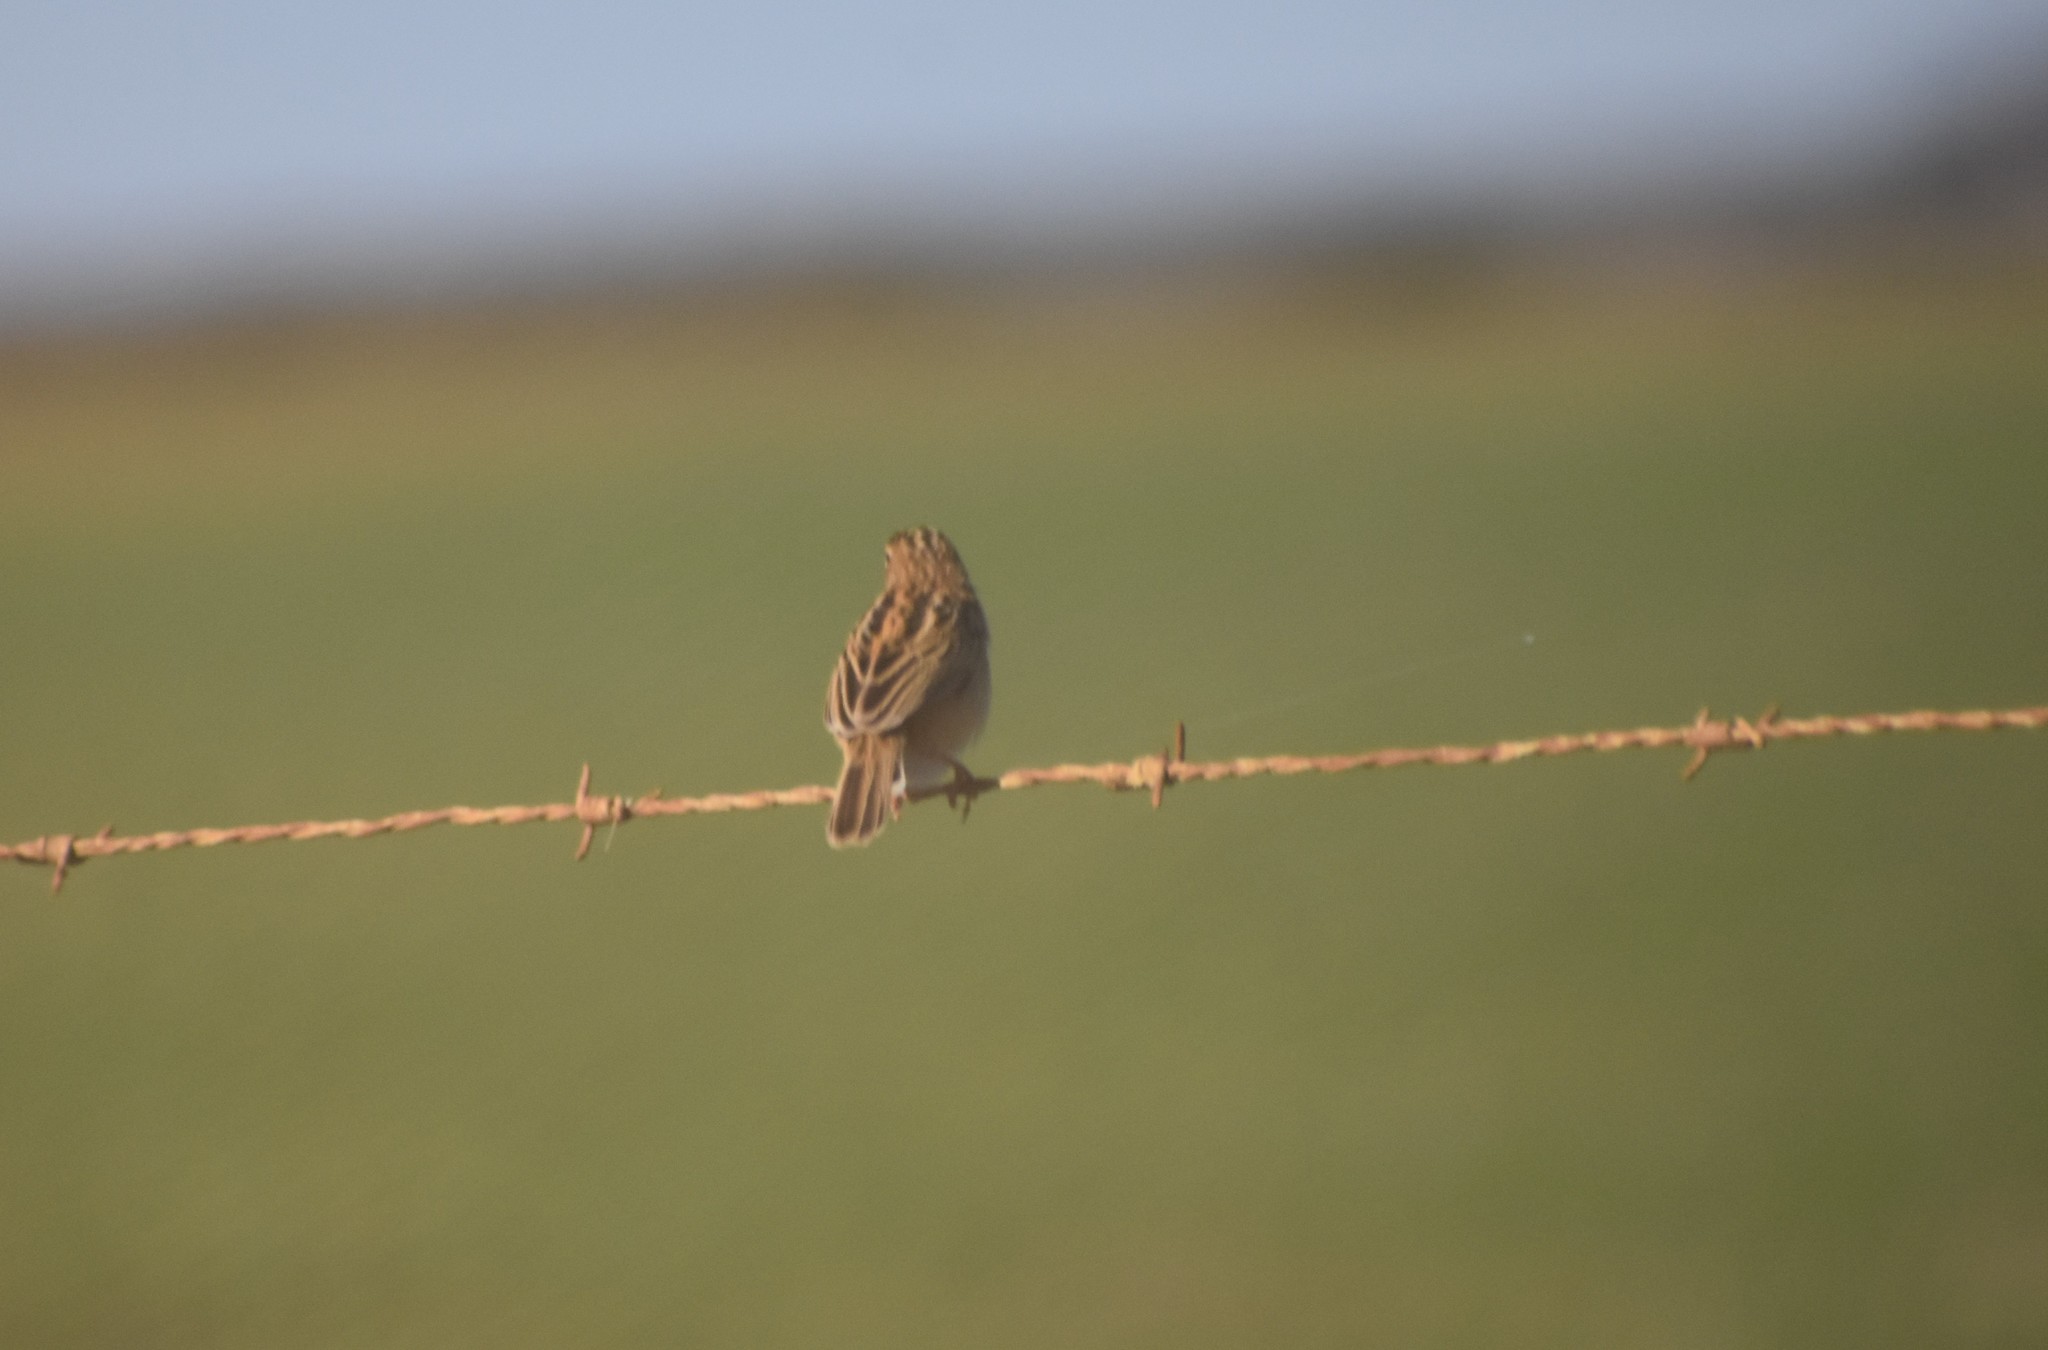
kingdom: Animalia
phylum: Chordata
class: Aves
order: Passeriformes
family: Cisticolidae
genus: Cisticola
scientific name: Cisticola juncidis
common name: Zitting cisticola
